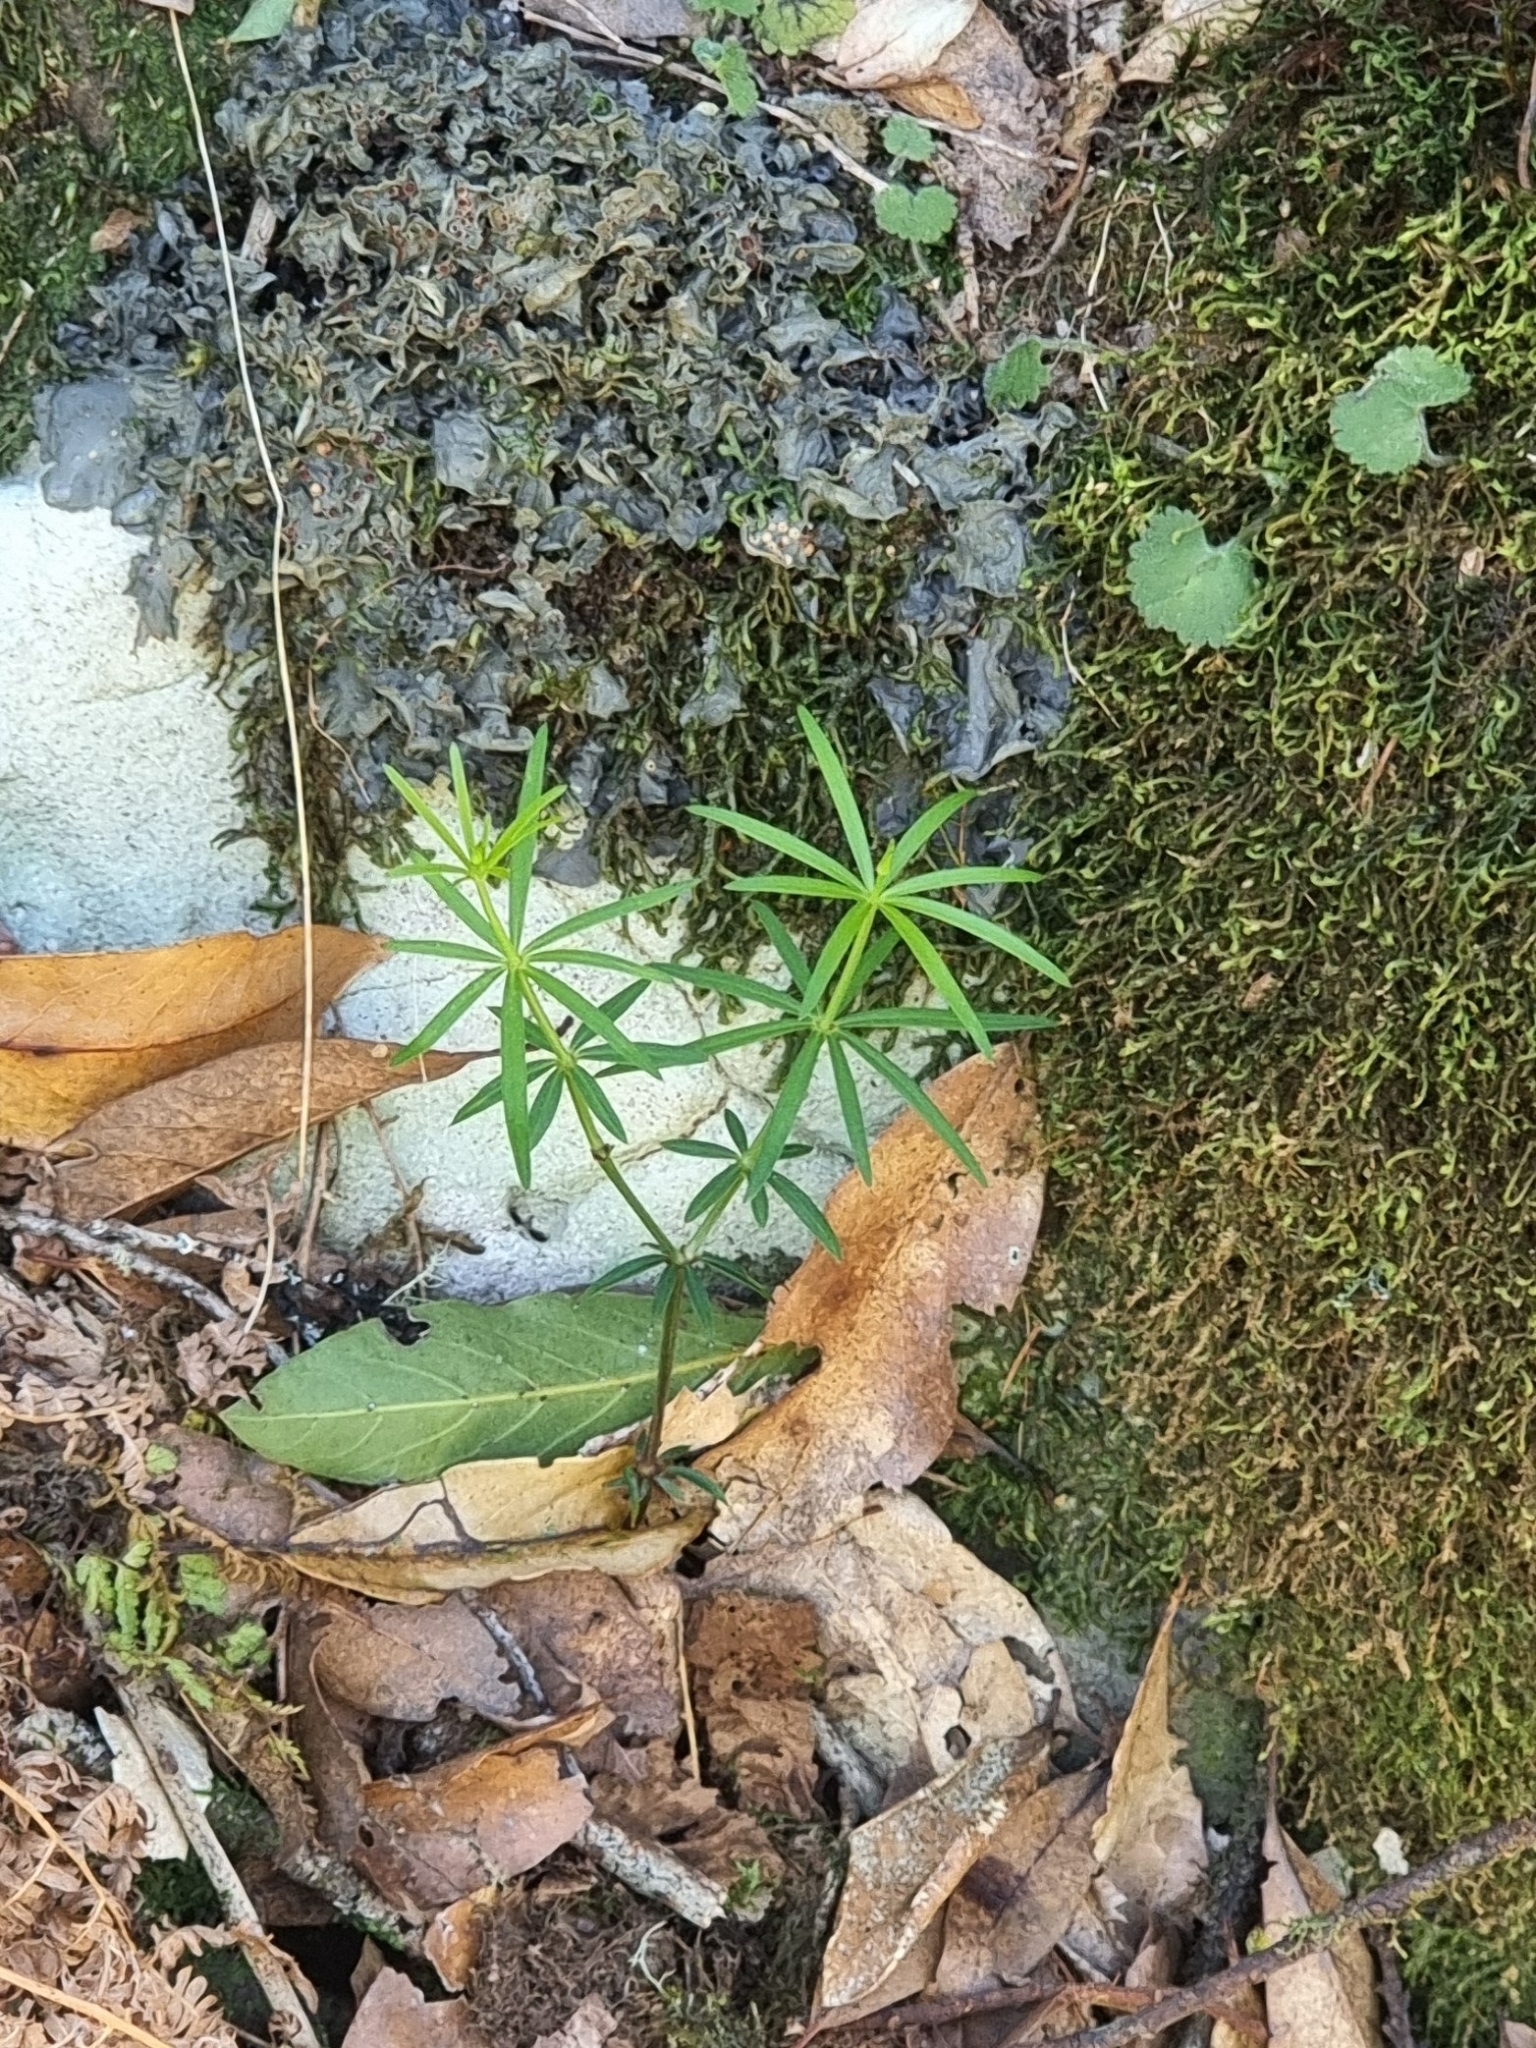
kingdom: Plantae
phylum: Tracheophyta
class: Magnoliopsida
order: Gentianales
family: Rubiaceae
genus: Rubia
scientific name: Rubia occidens
